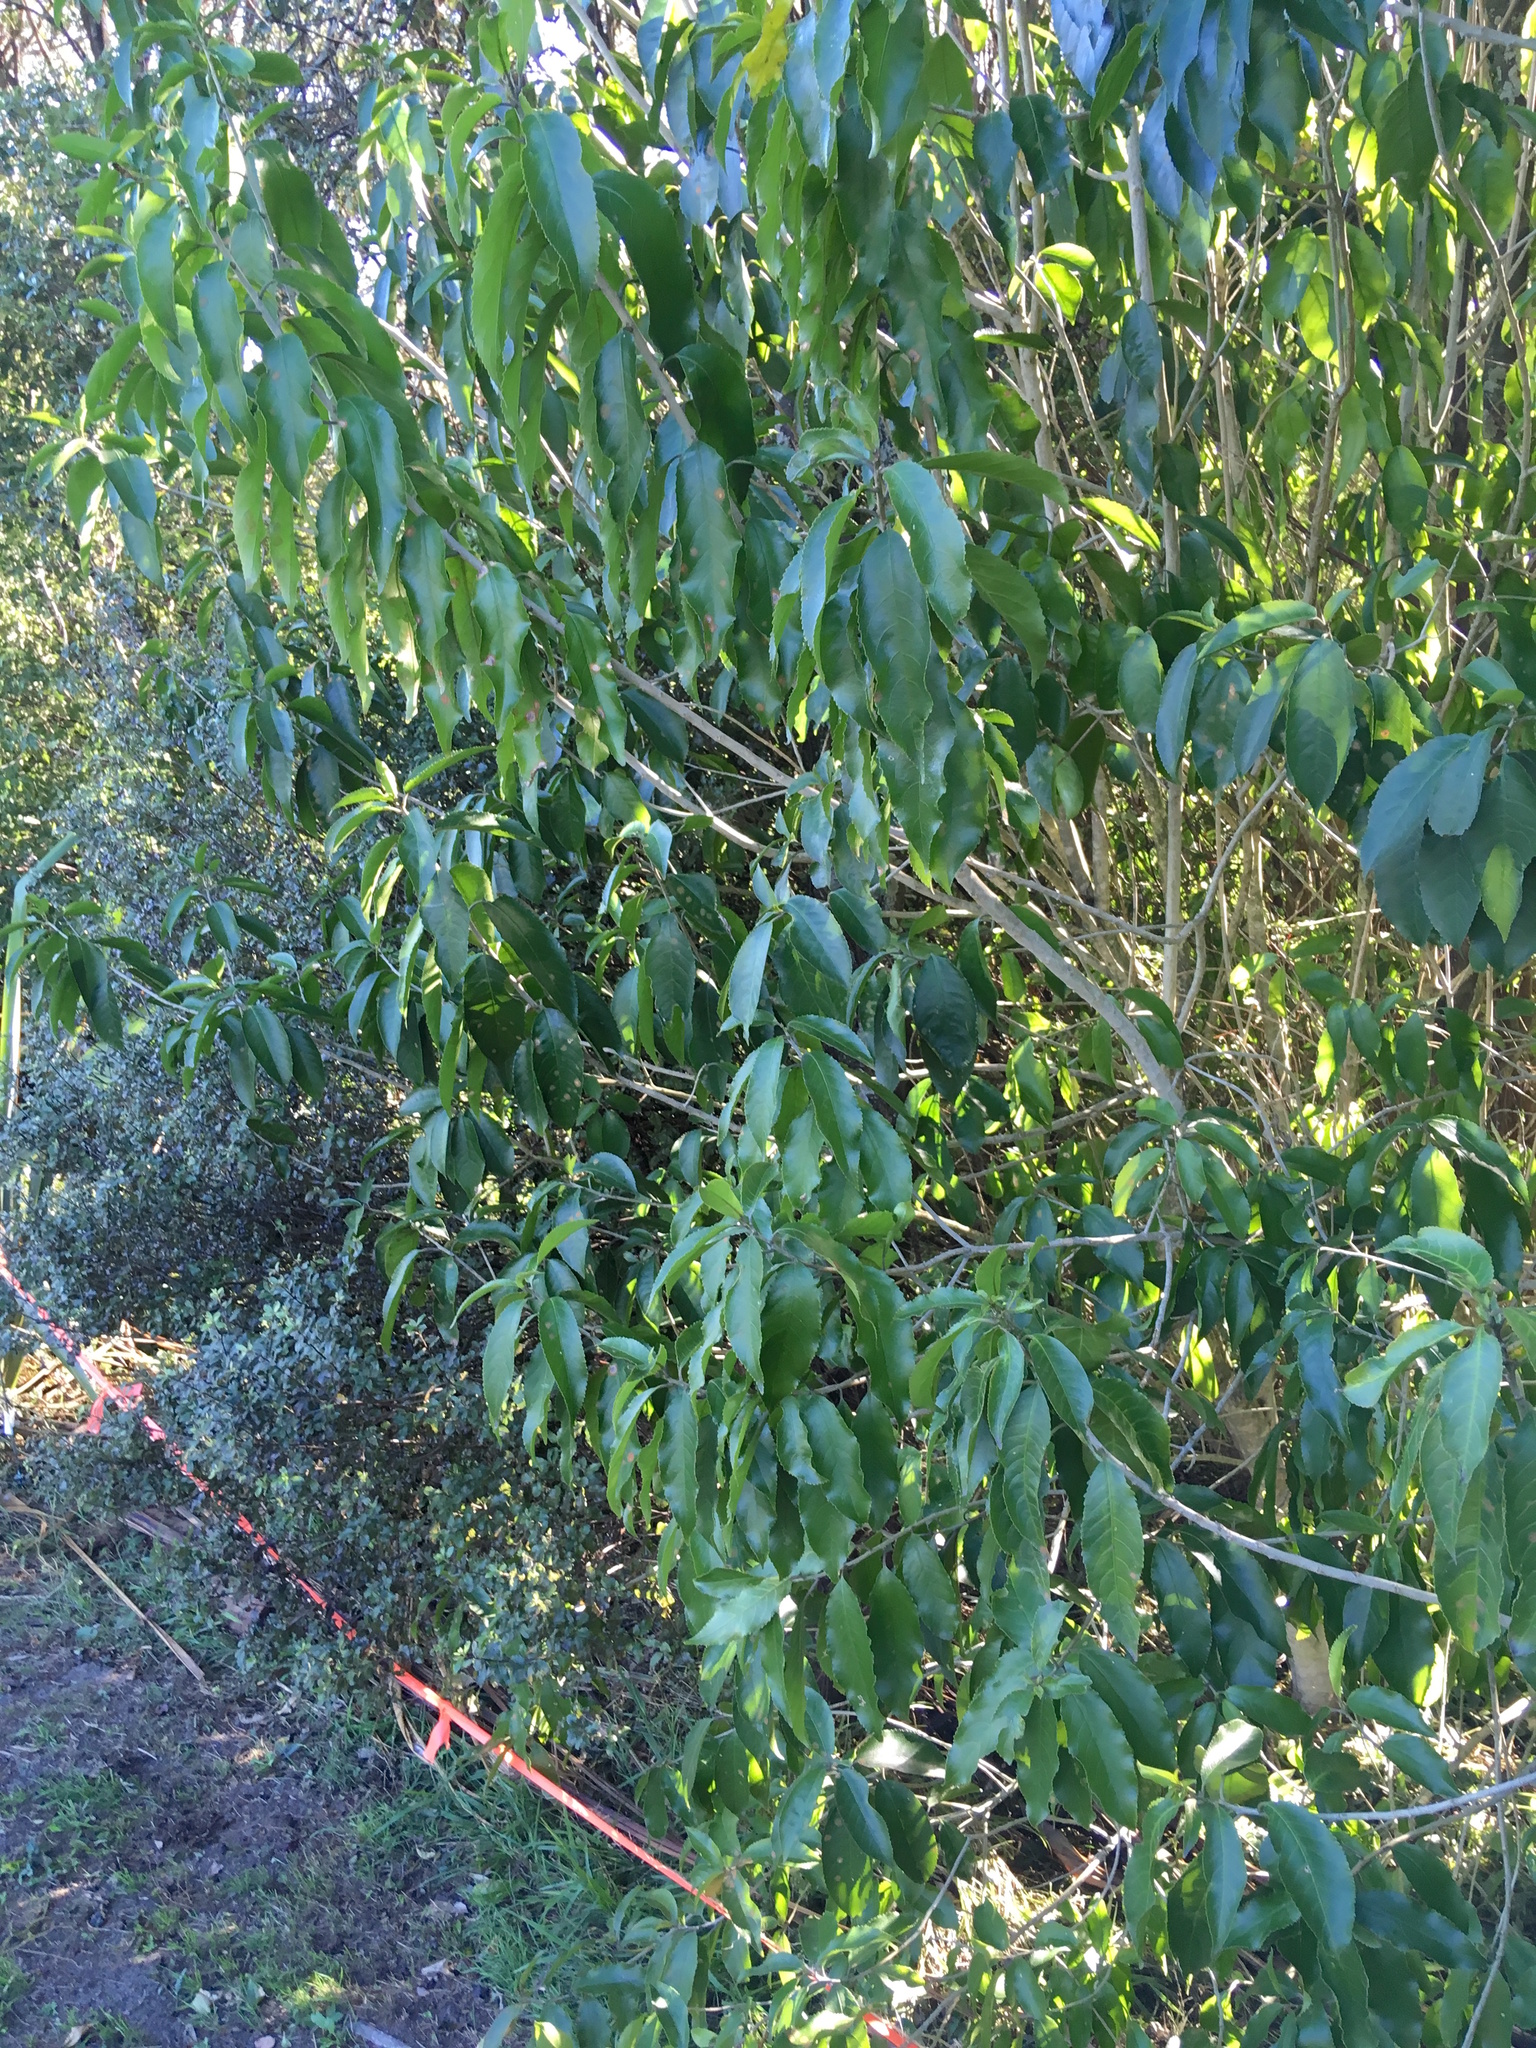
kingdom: Plantae
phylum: Tracheophyta
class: Magnoliopsida
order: Malpighiales
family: Violaceae
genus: Melicytus
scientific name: Melicytus ramiflorus
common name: Mahoe
